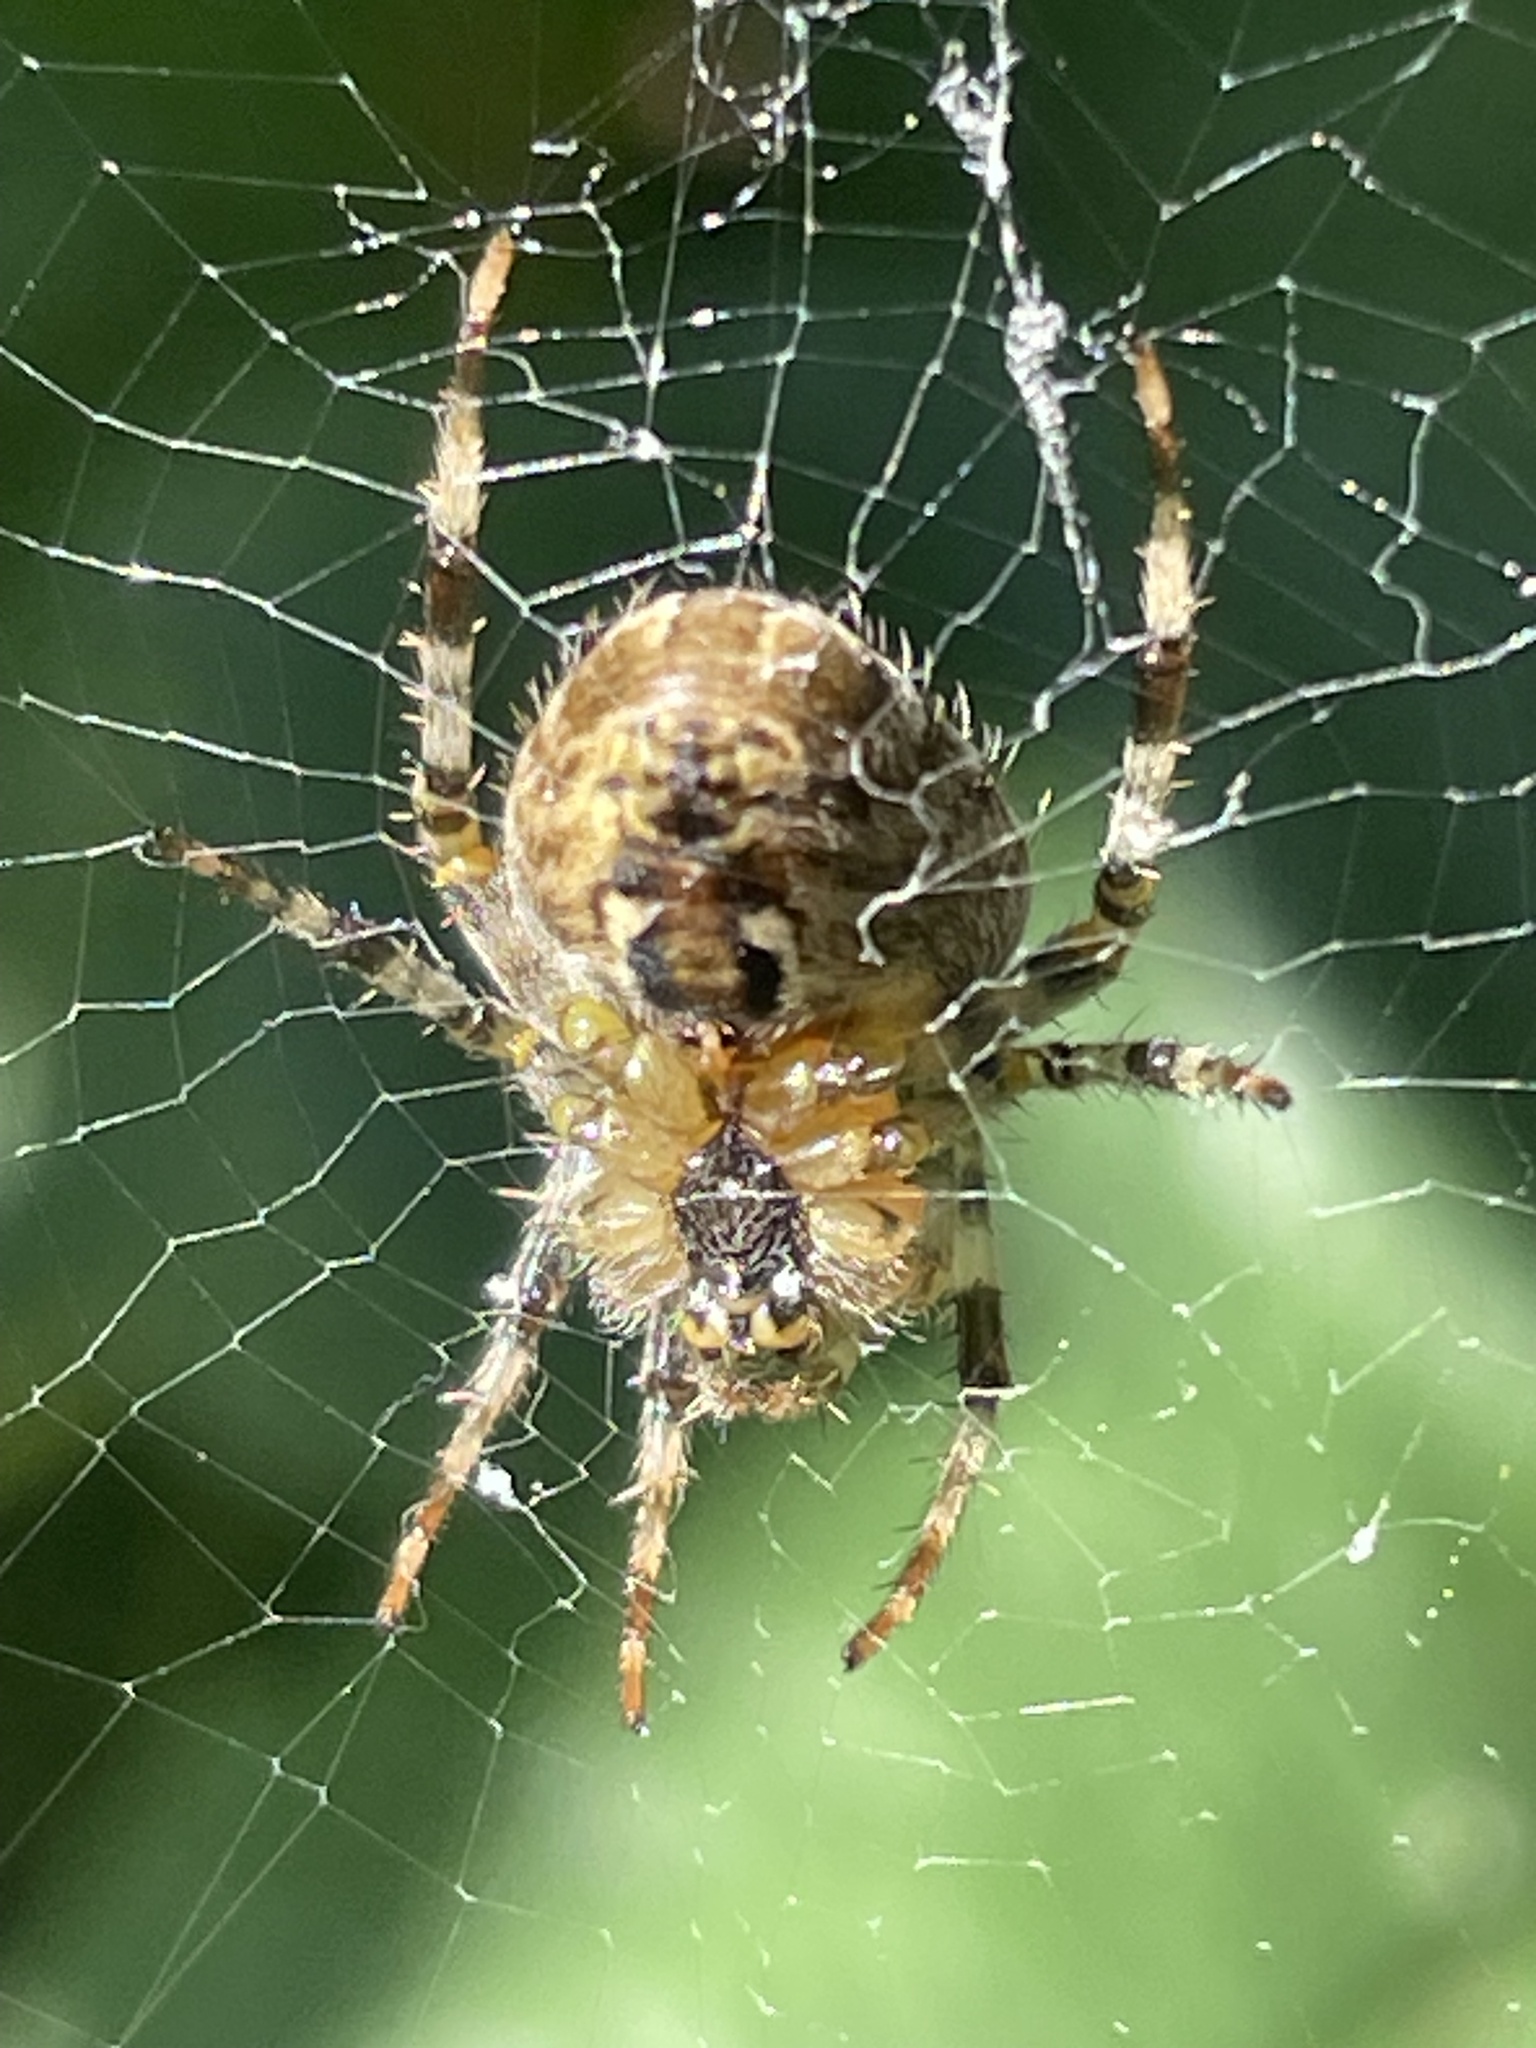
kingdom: Animalia
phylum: Arthropoda
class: Arachnida
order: Araneae
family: Araneidae
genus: Araneus
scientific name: Araneus diadematus
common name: Cross orbweaver
